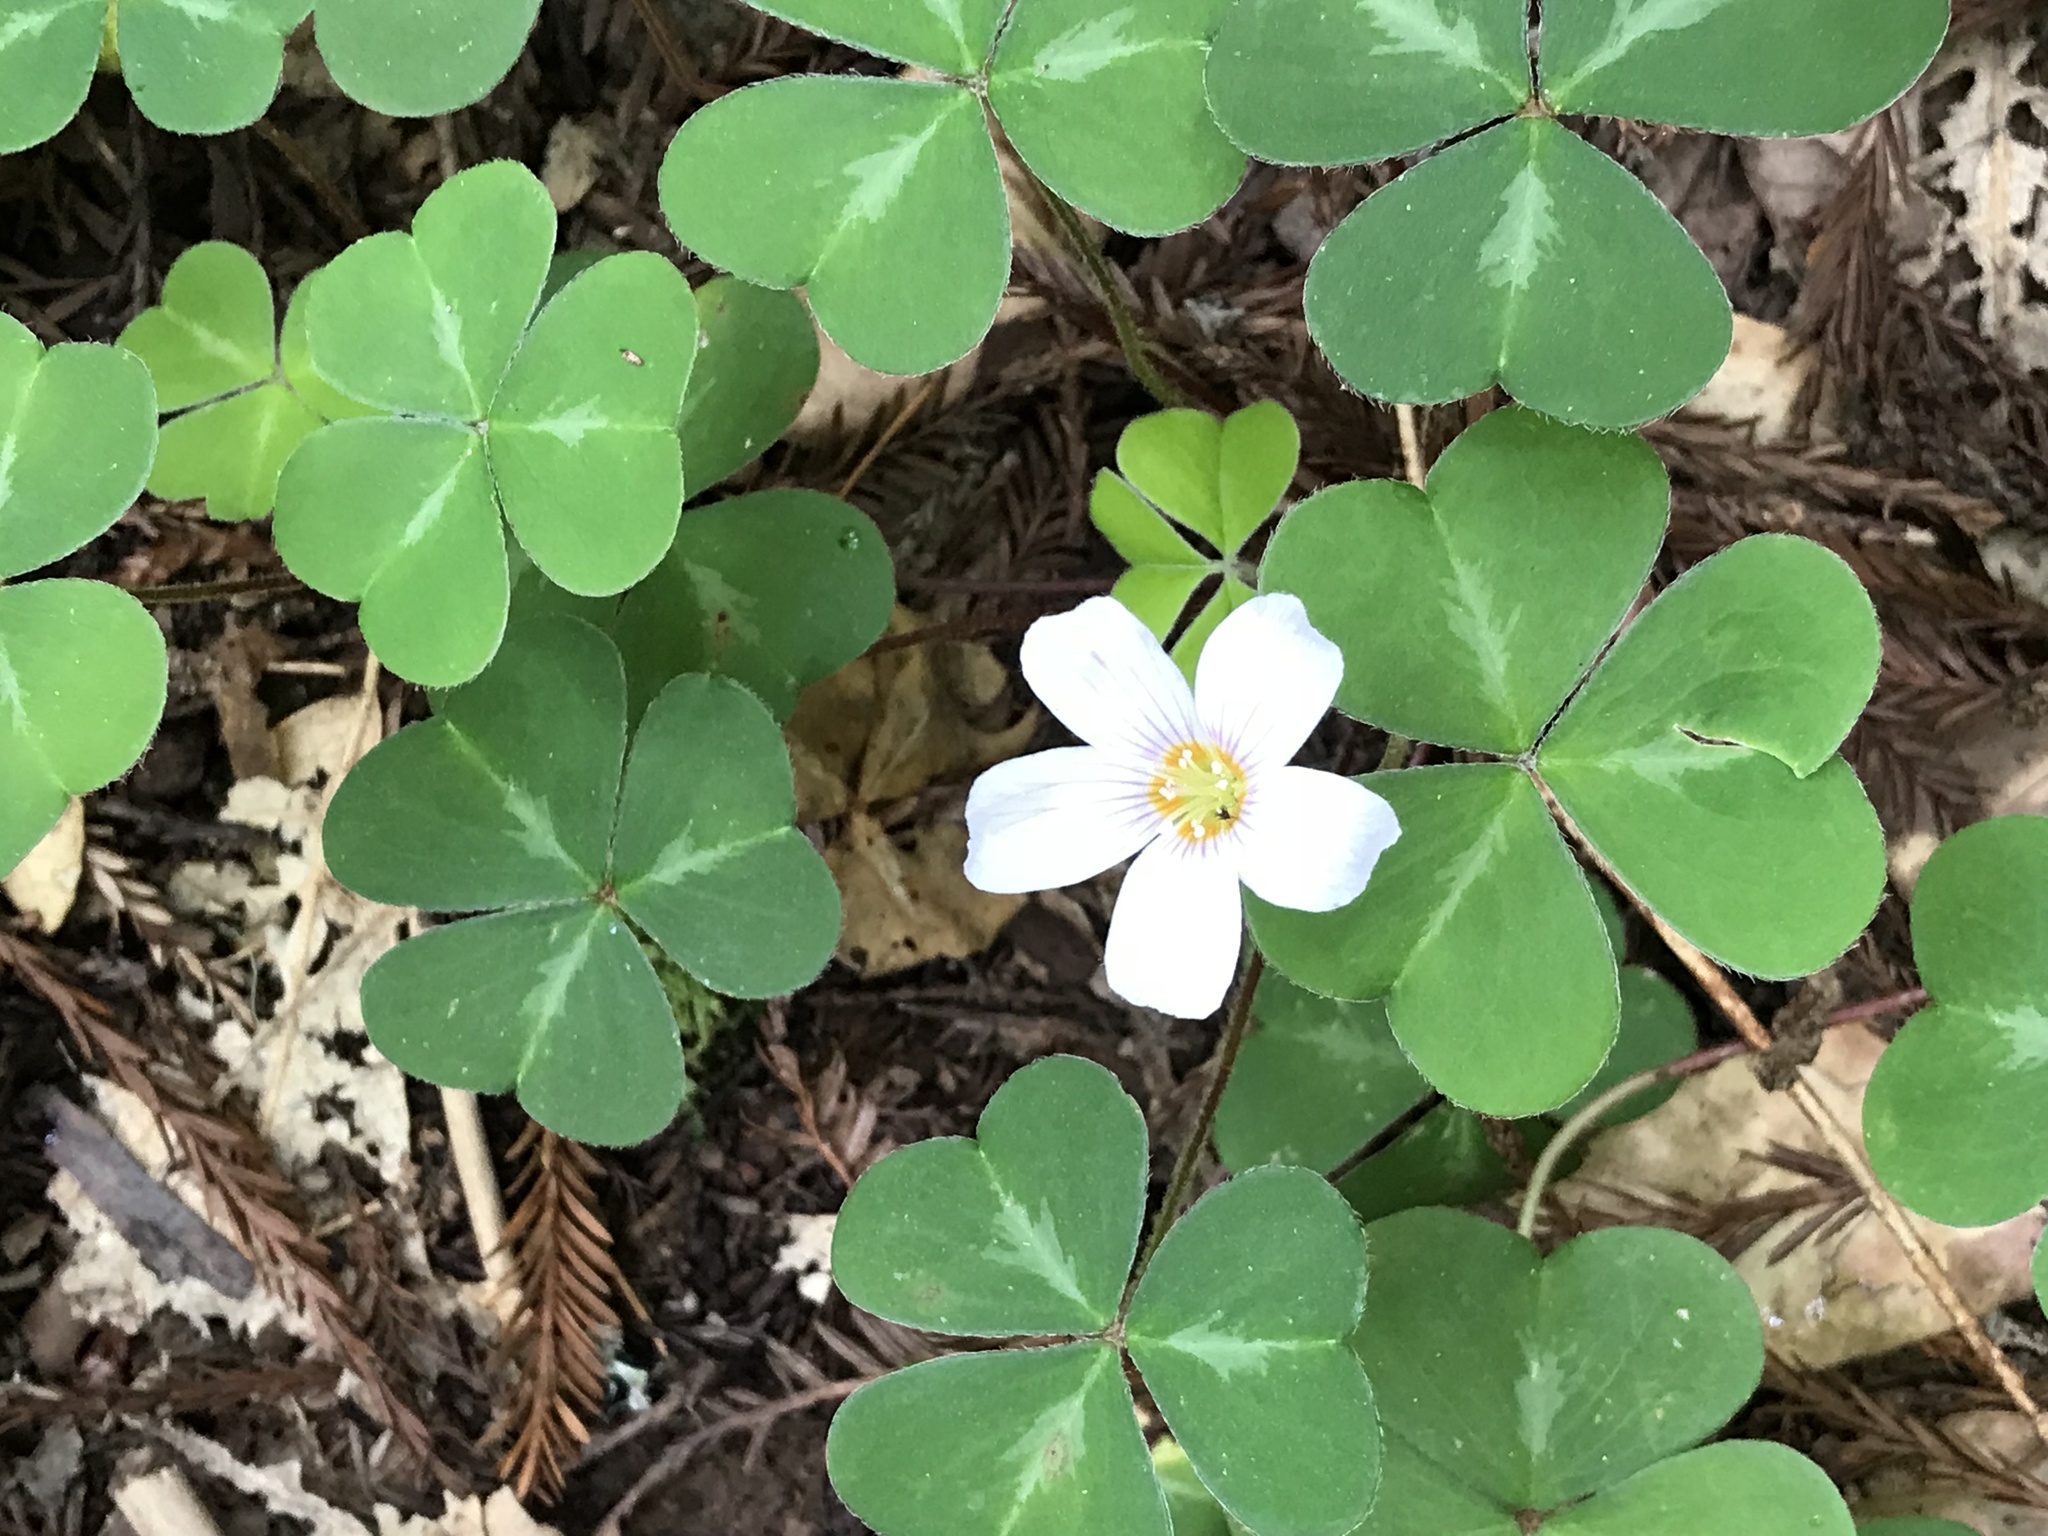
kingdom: Plantae
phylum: Tracheophyta
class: Magnoliopsida
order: Oxalidales
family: Oxalidaceae
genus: Oxalis
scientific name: Oxalis oregana
